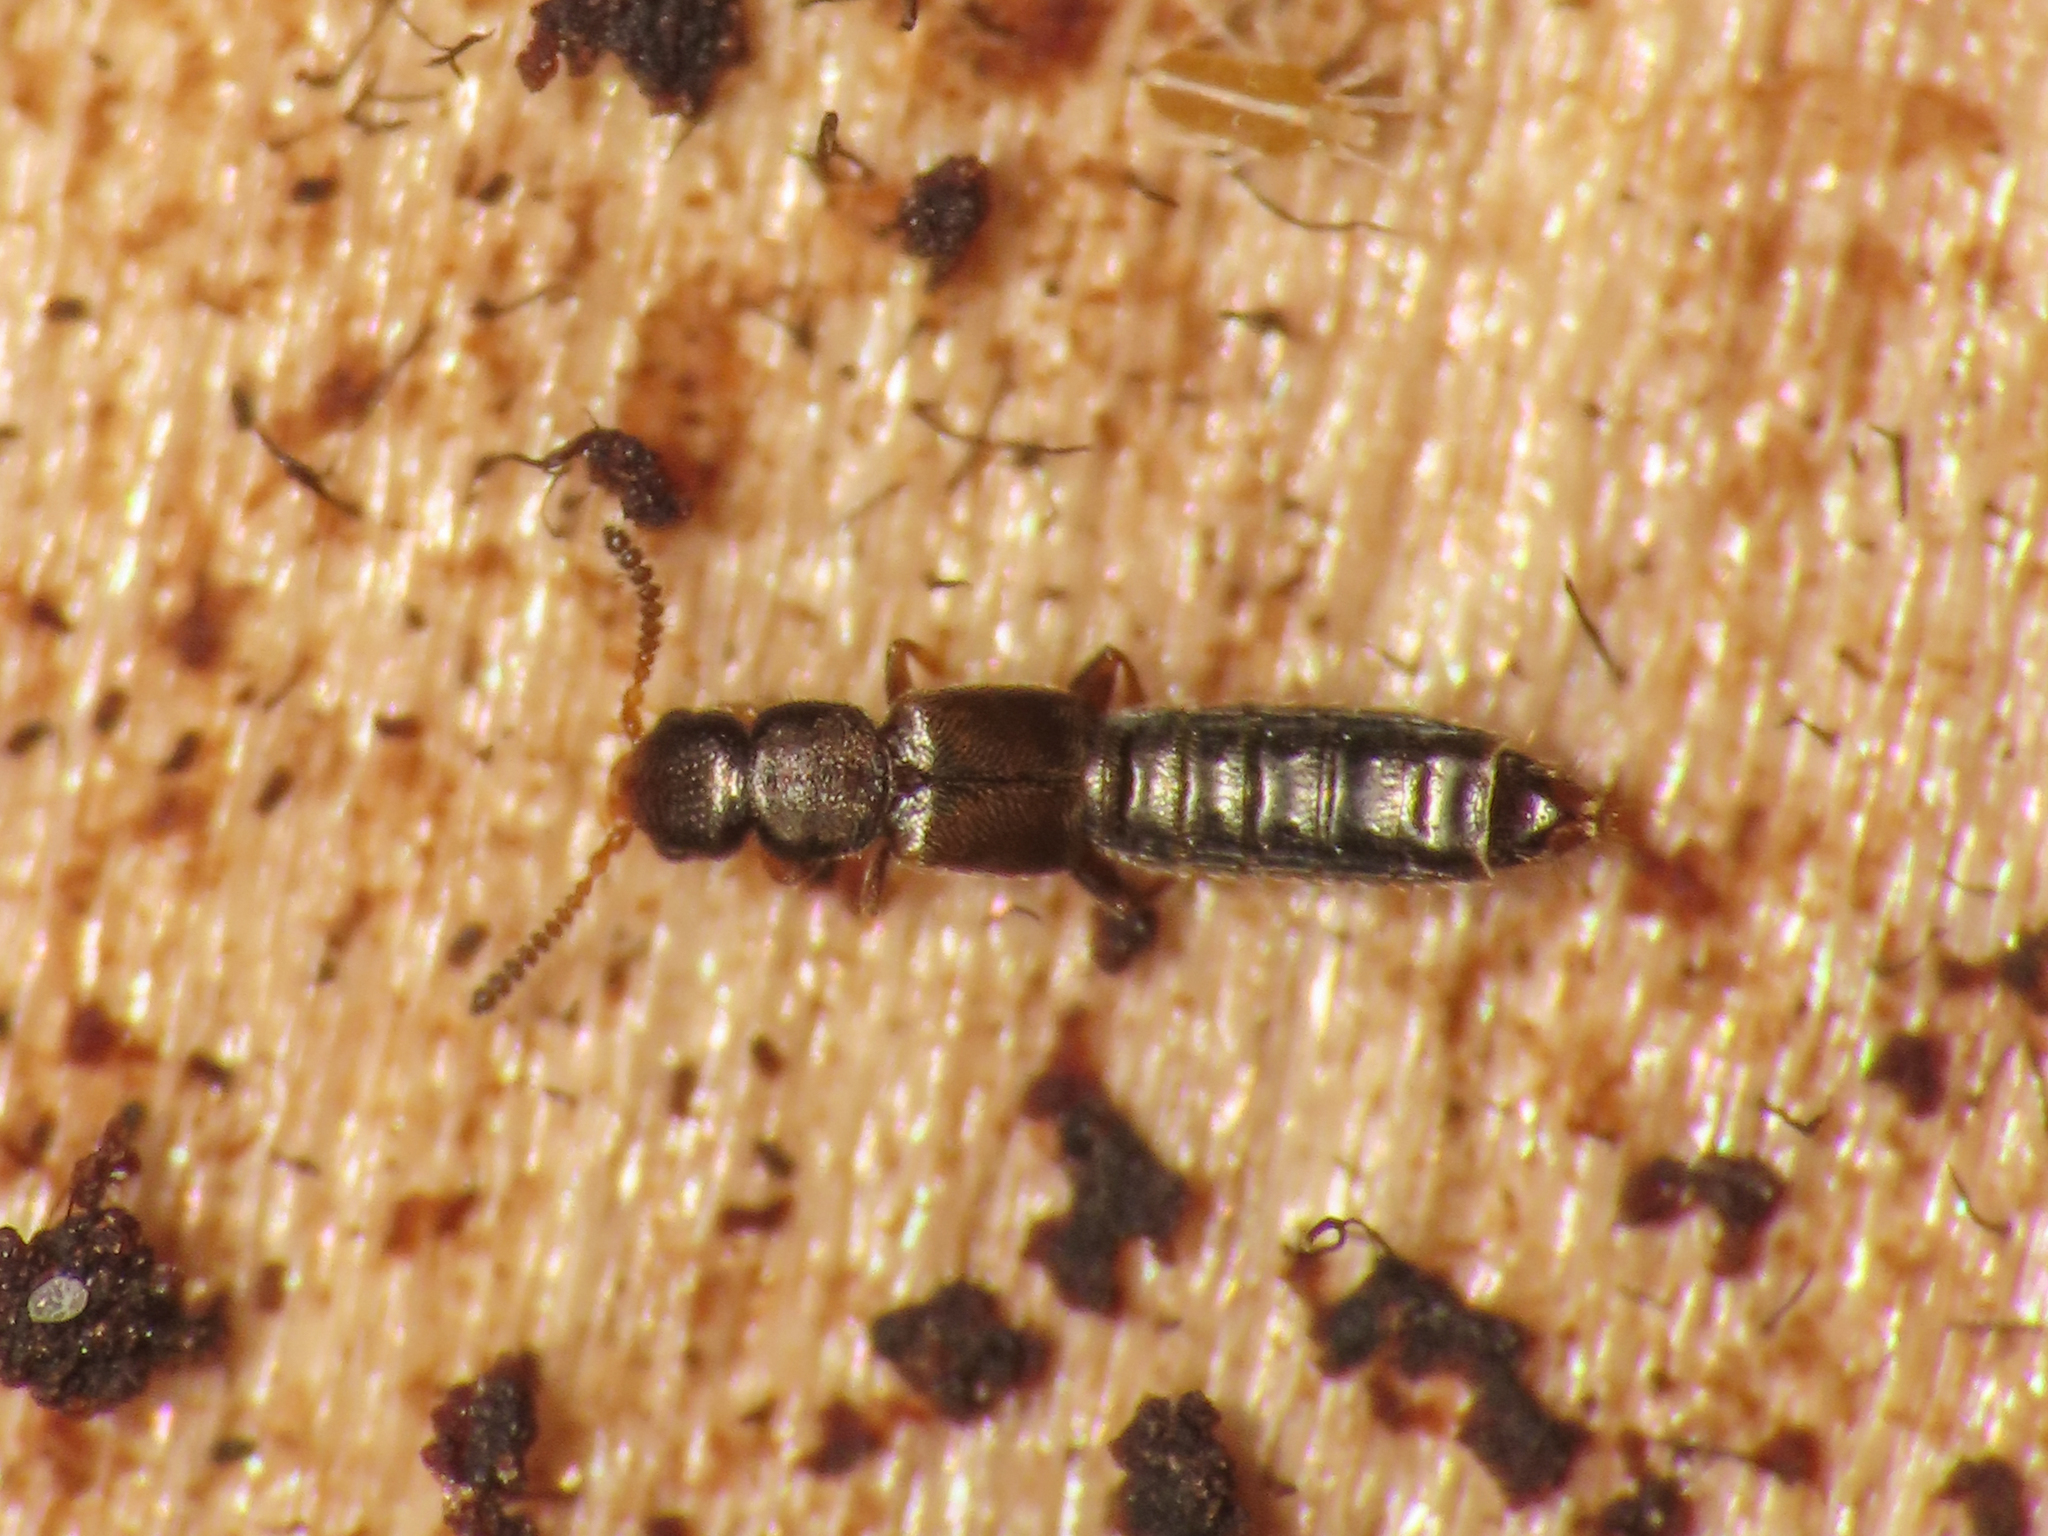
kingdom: Animalia
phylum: Arthropoda
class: Insecta
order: Coleoptera
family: Staphylinidae
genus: Anomognathus
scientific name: Anomognathus cuspidatus
